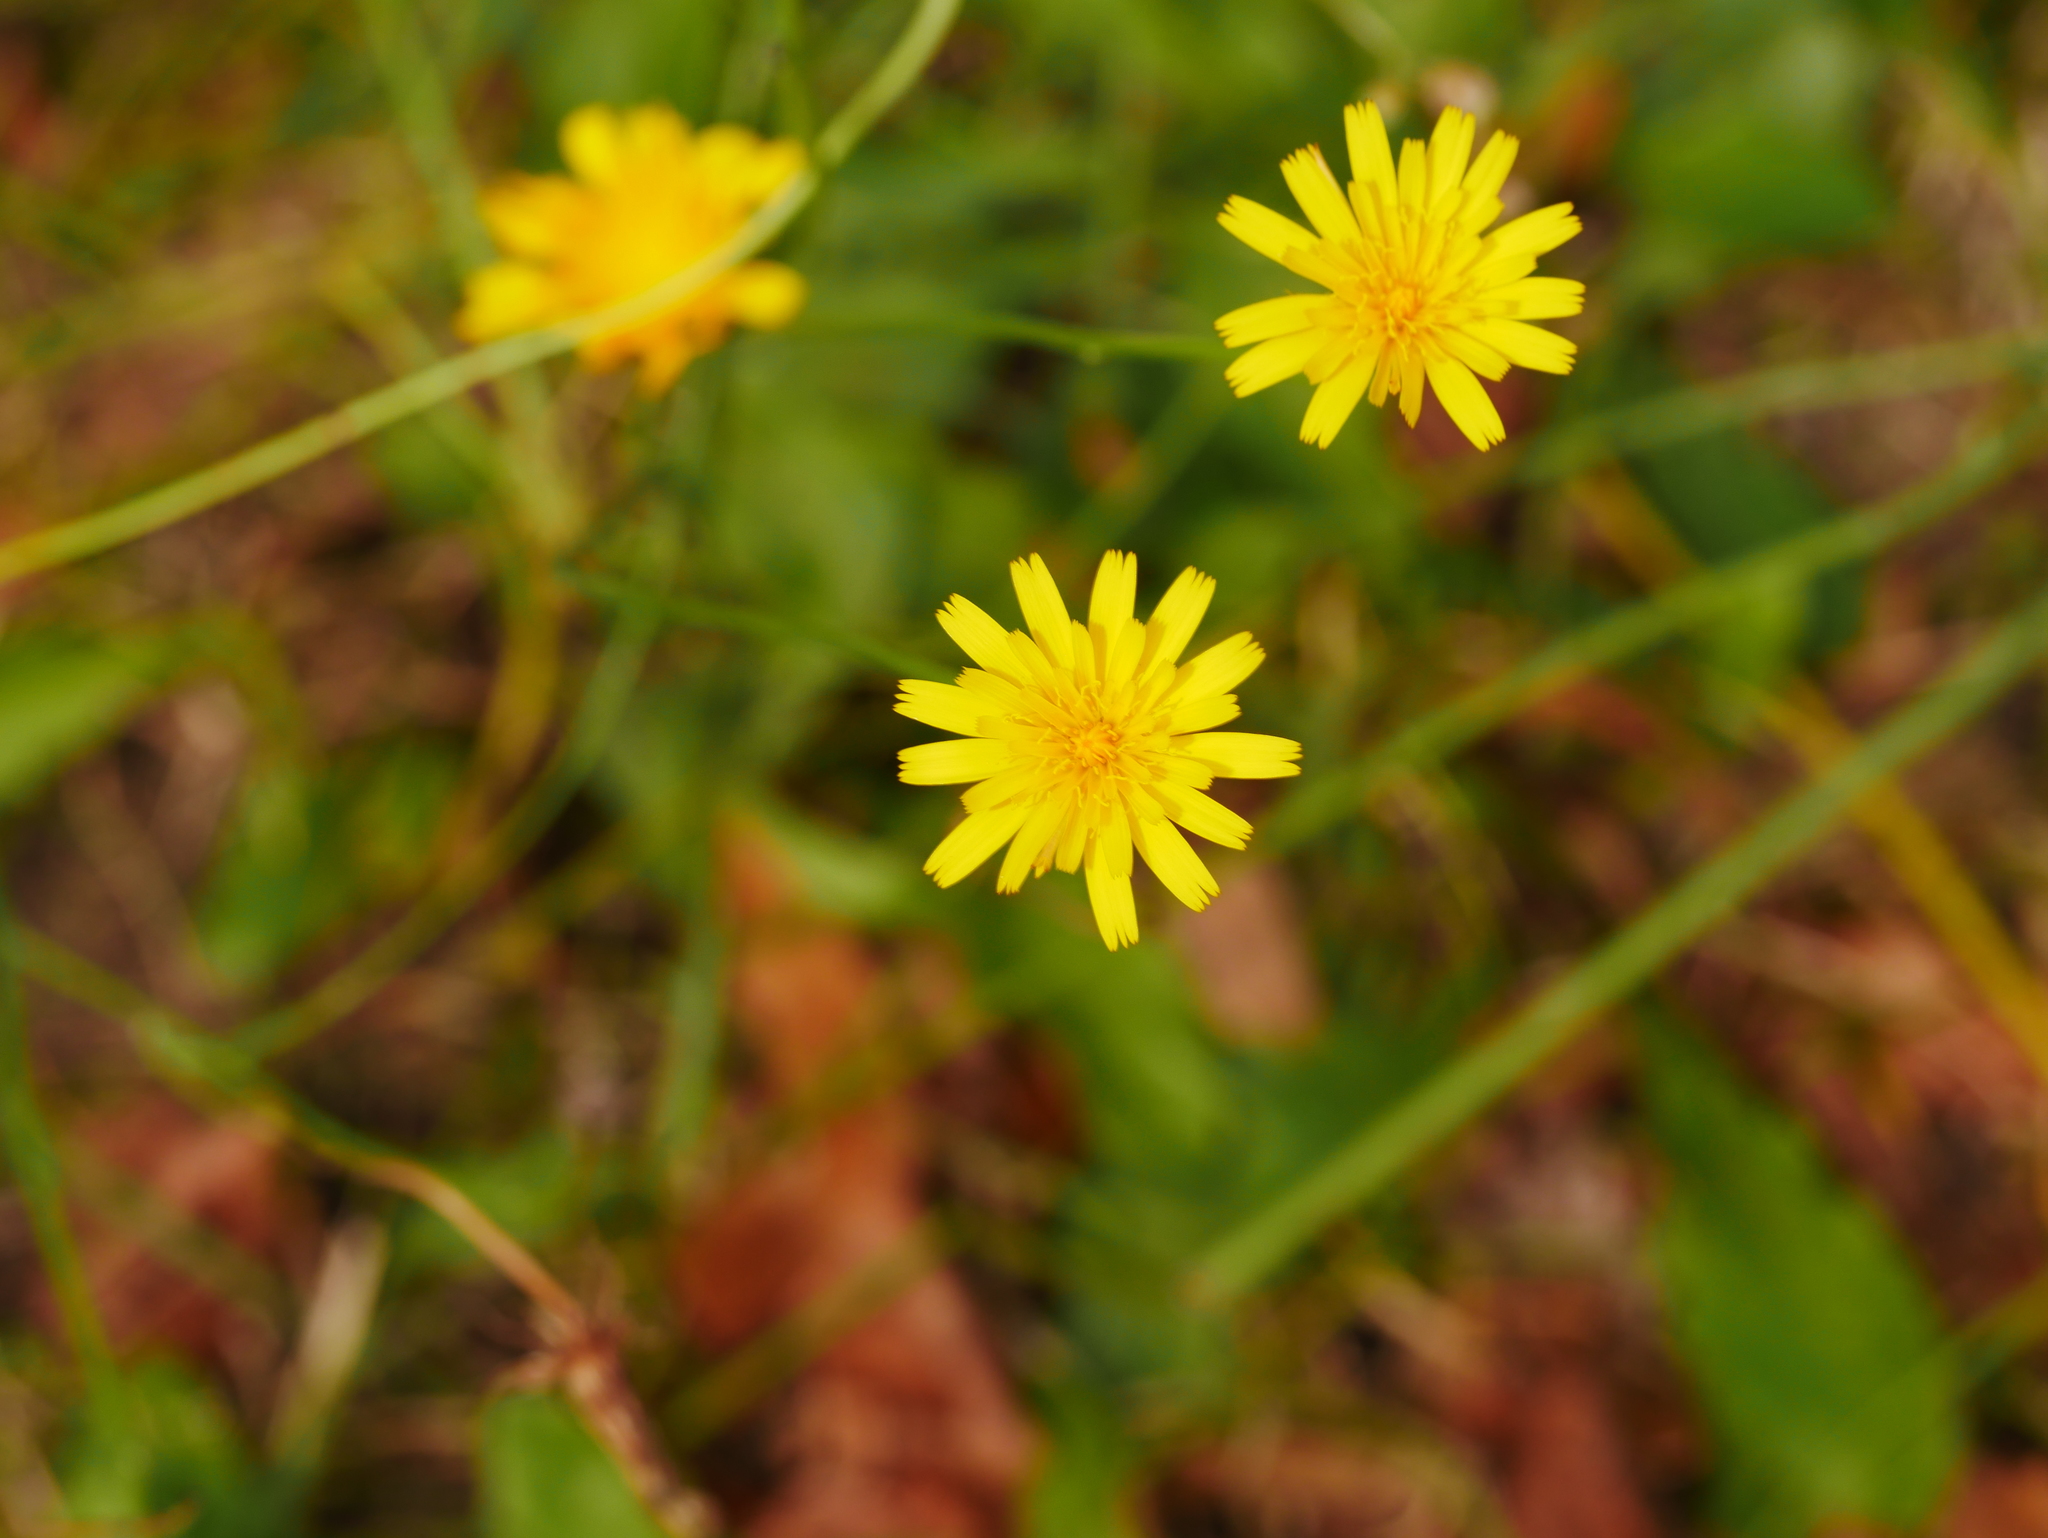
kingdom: Plantae
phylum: Tracheophyta
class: Magnoliopsida
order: Asterales
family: Asteraceae
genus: Scorzoneroides
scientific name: Scorzoneroides autumnalis
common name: Autumn hawkbit
